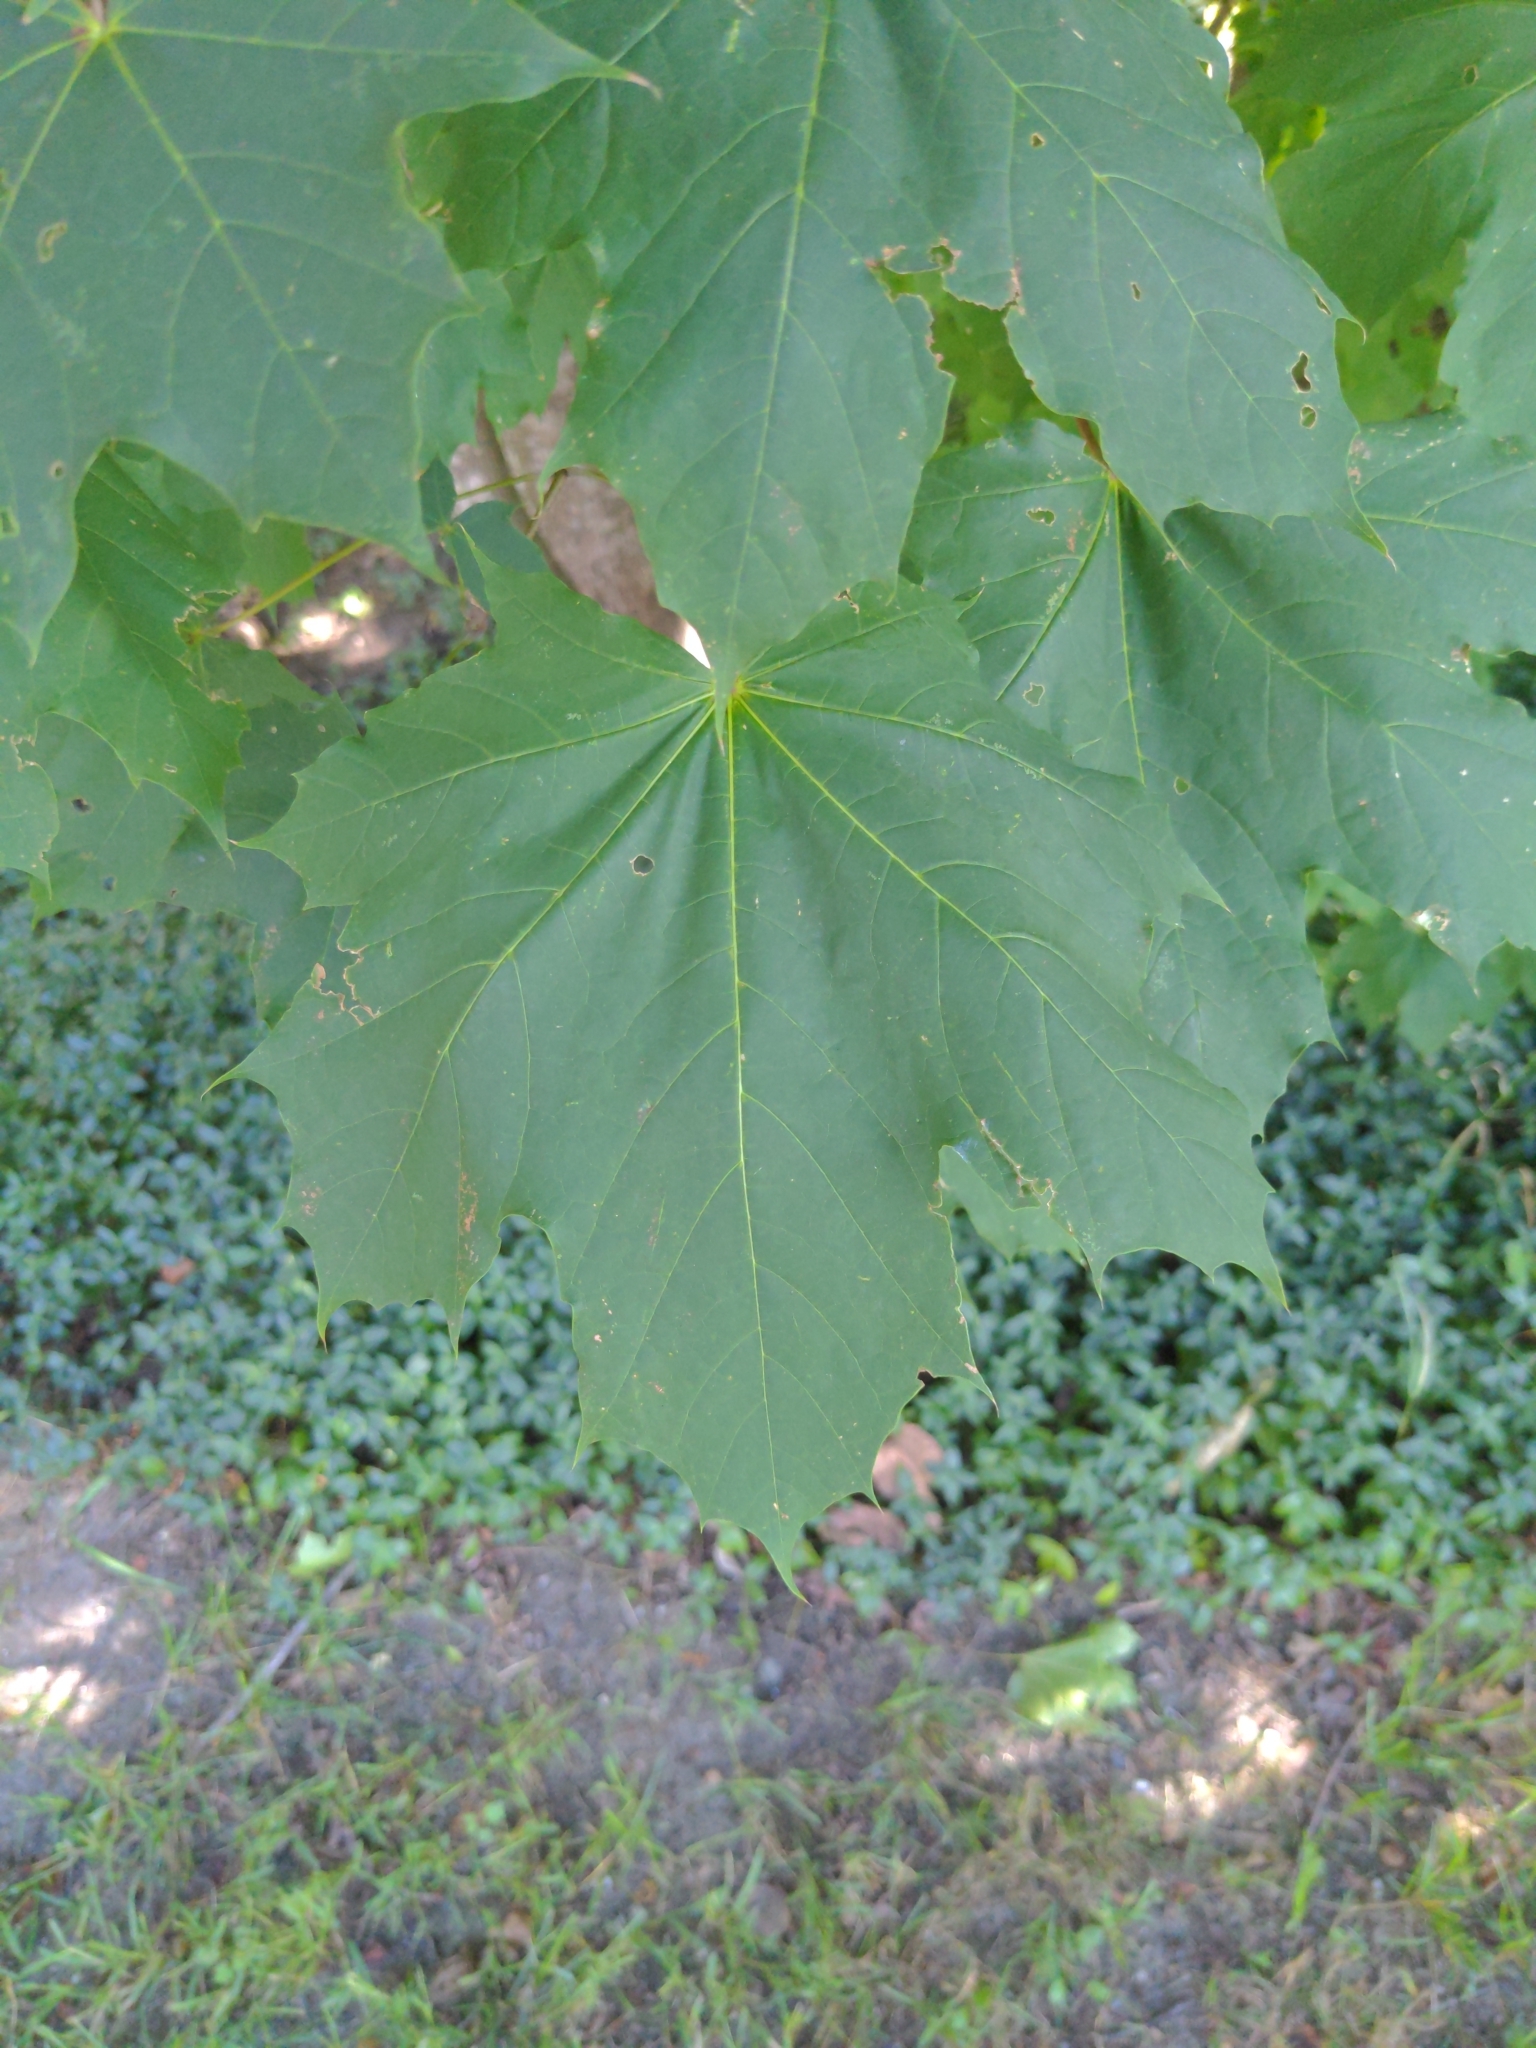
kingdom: Plantae
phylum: Tracheophyta
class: Magnoliopsida
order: Sapindales
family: Sapindaceae
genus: Acer
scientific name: Acer platanoides
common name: Norway maple
